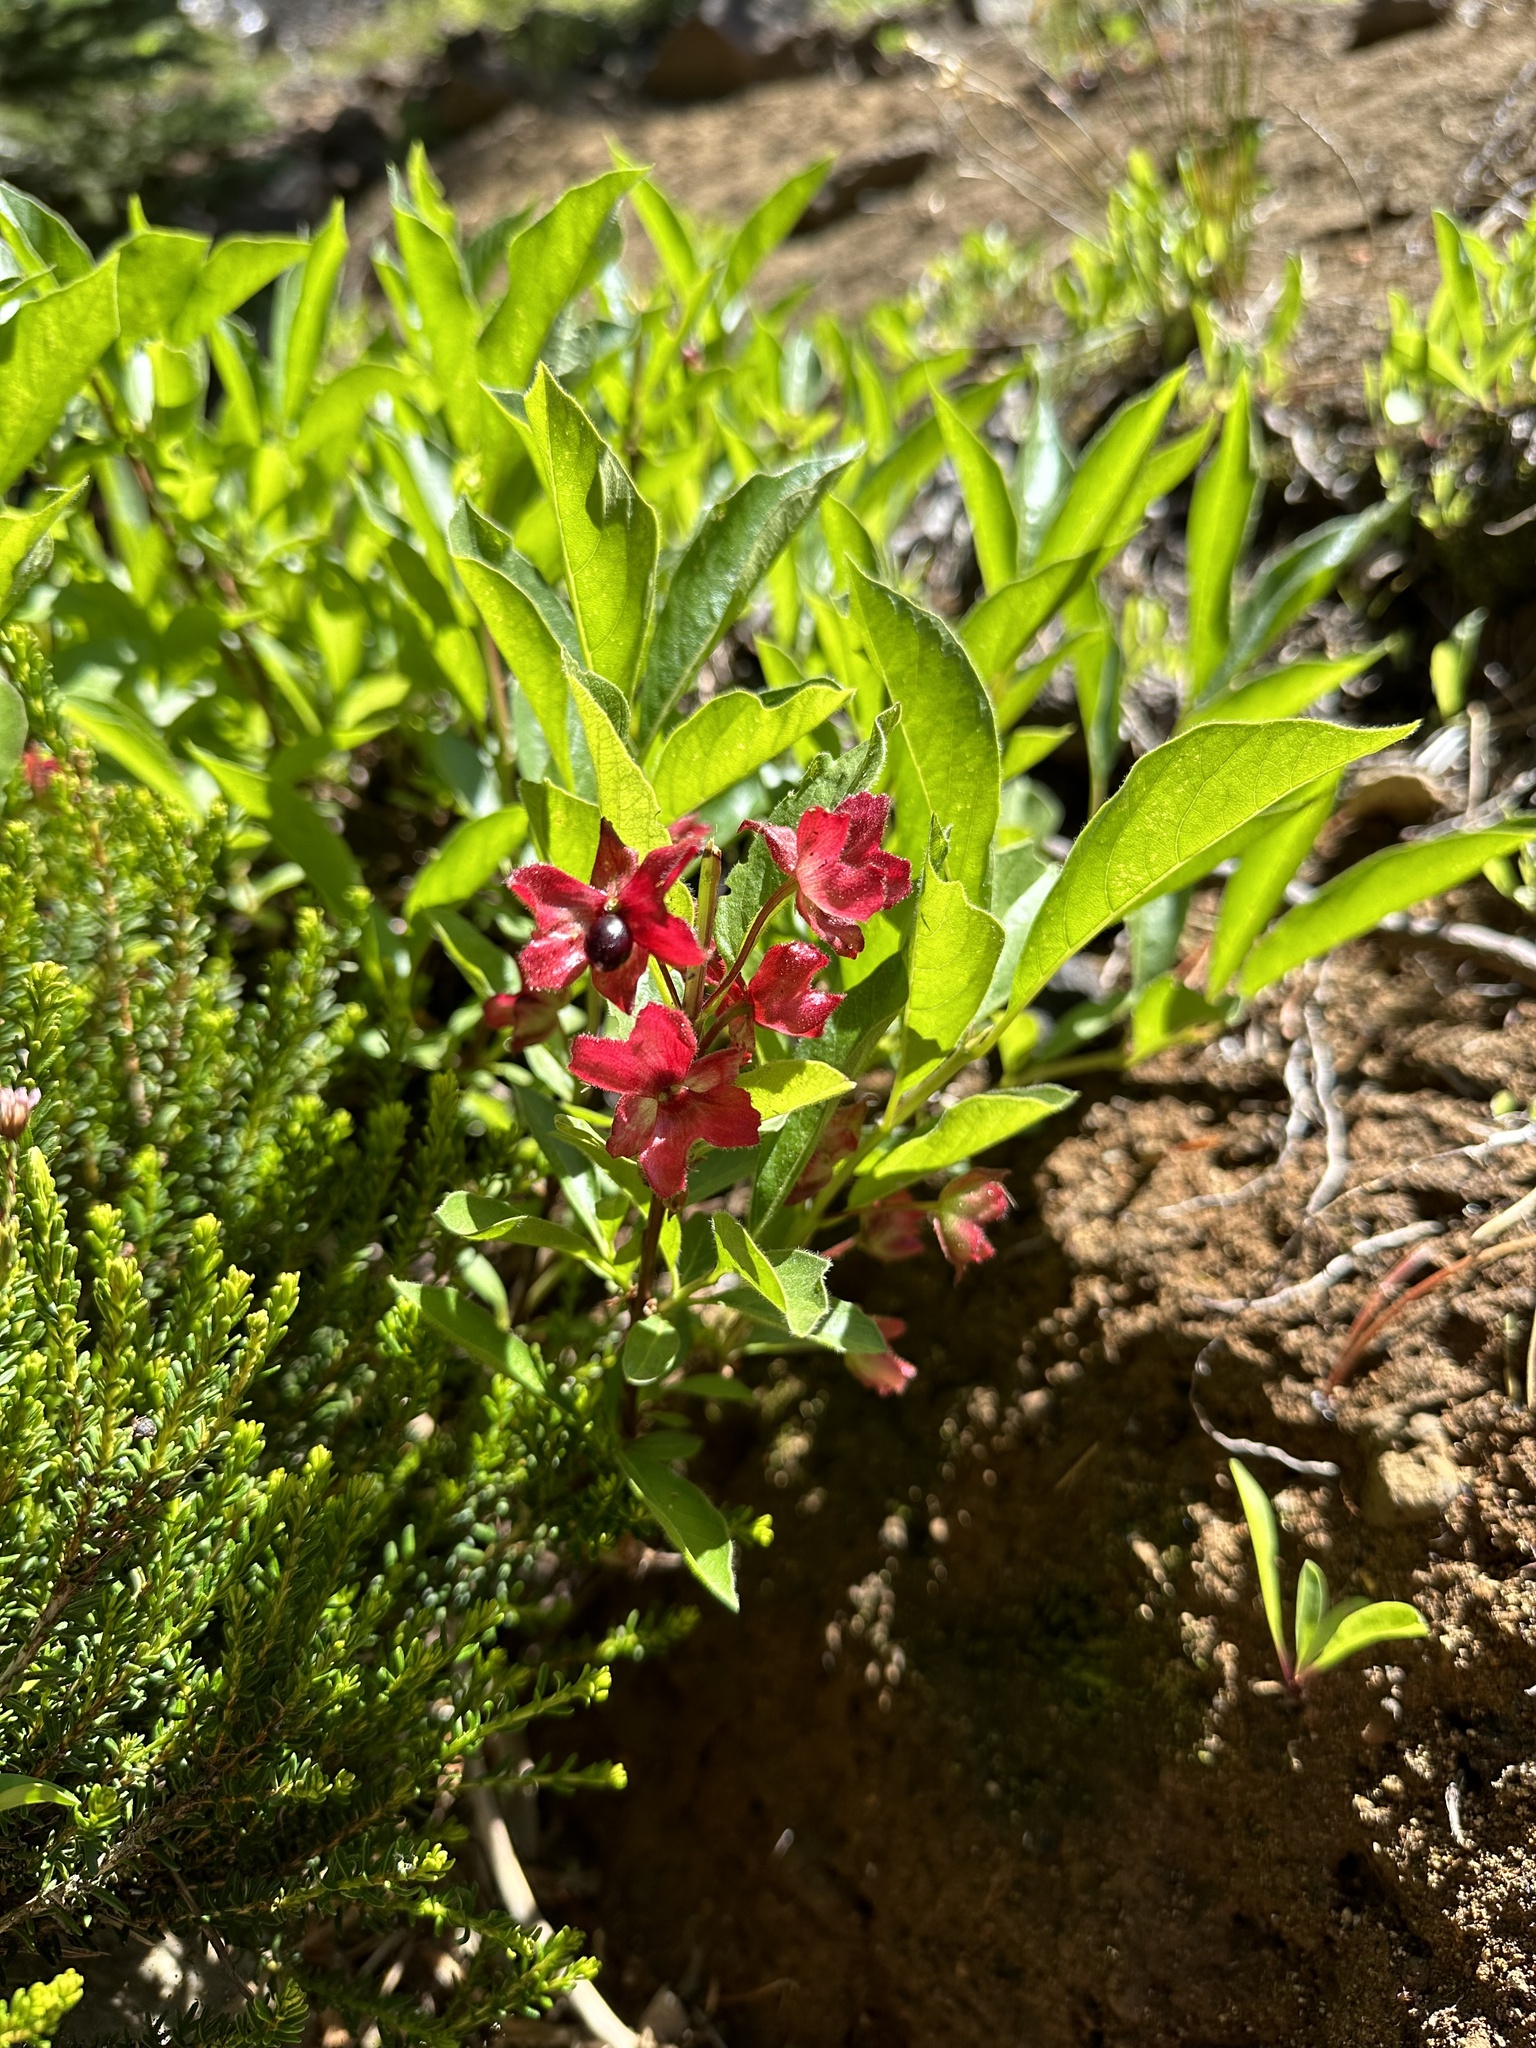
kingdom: Plantae
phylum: Tracheophyta
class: Magnoliopsida
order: Dipsacales
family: Caprifoliaceae
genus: Lonicera
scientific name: Lonicera involucrata
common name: Californian honeysuckle
